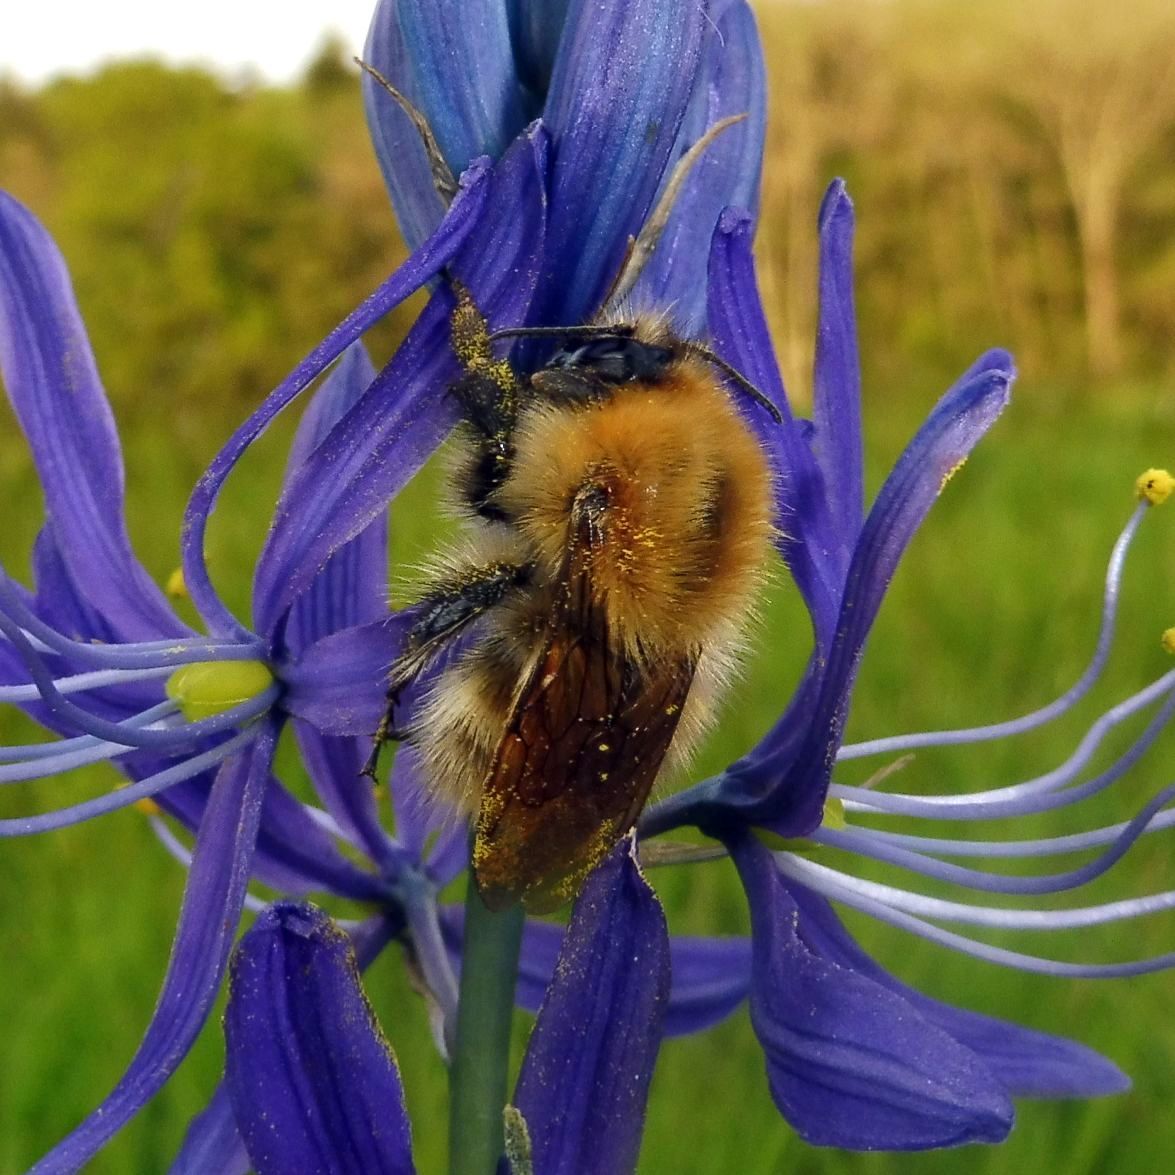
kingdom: Animalia
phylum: Arthropoda
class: Insecta
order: Hymenoptera
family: Apidae
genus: Bombus
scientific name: Bombus pascuorum
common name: Common carder bee
